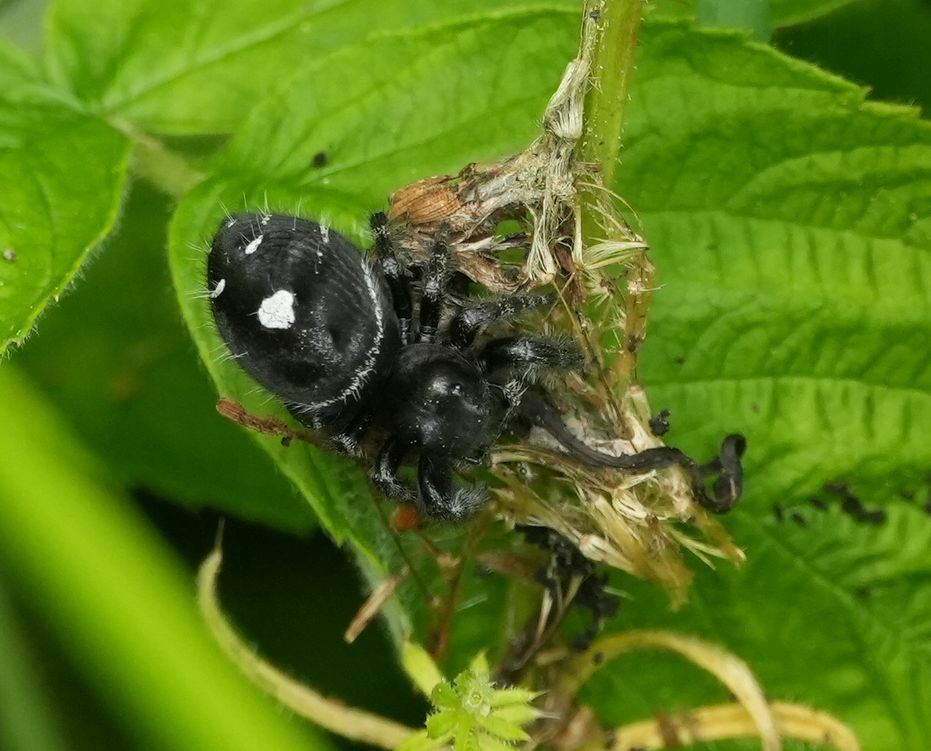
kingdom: Animalia
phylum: Arthropoda
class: Arachnida
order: Araneae
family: Salticidae
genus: Phidippus
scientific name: Phidippus audax
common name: Bold jumper
